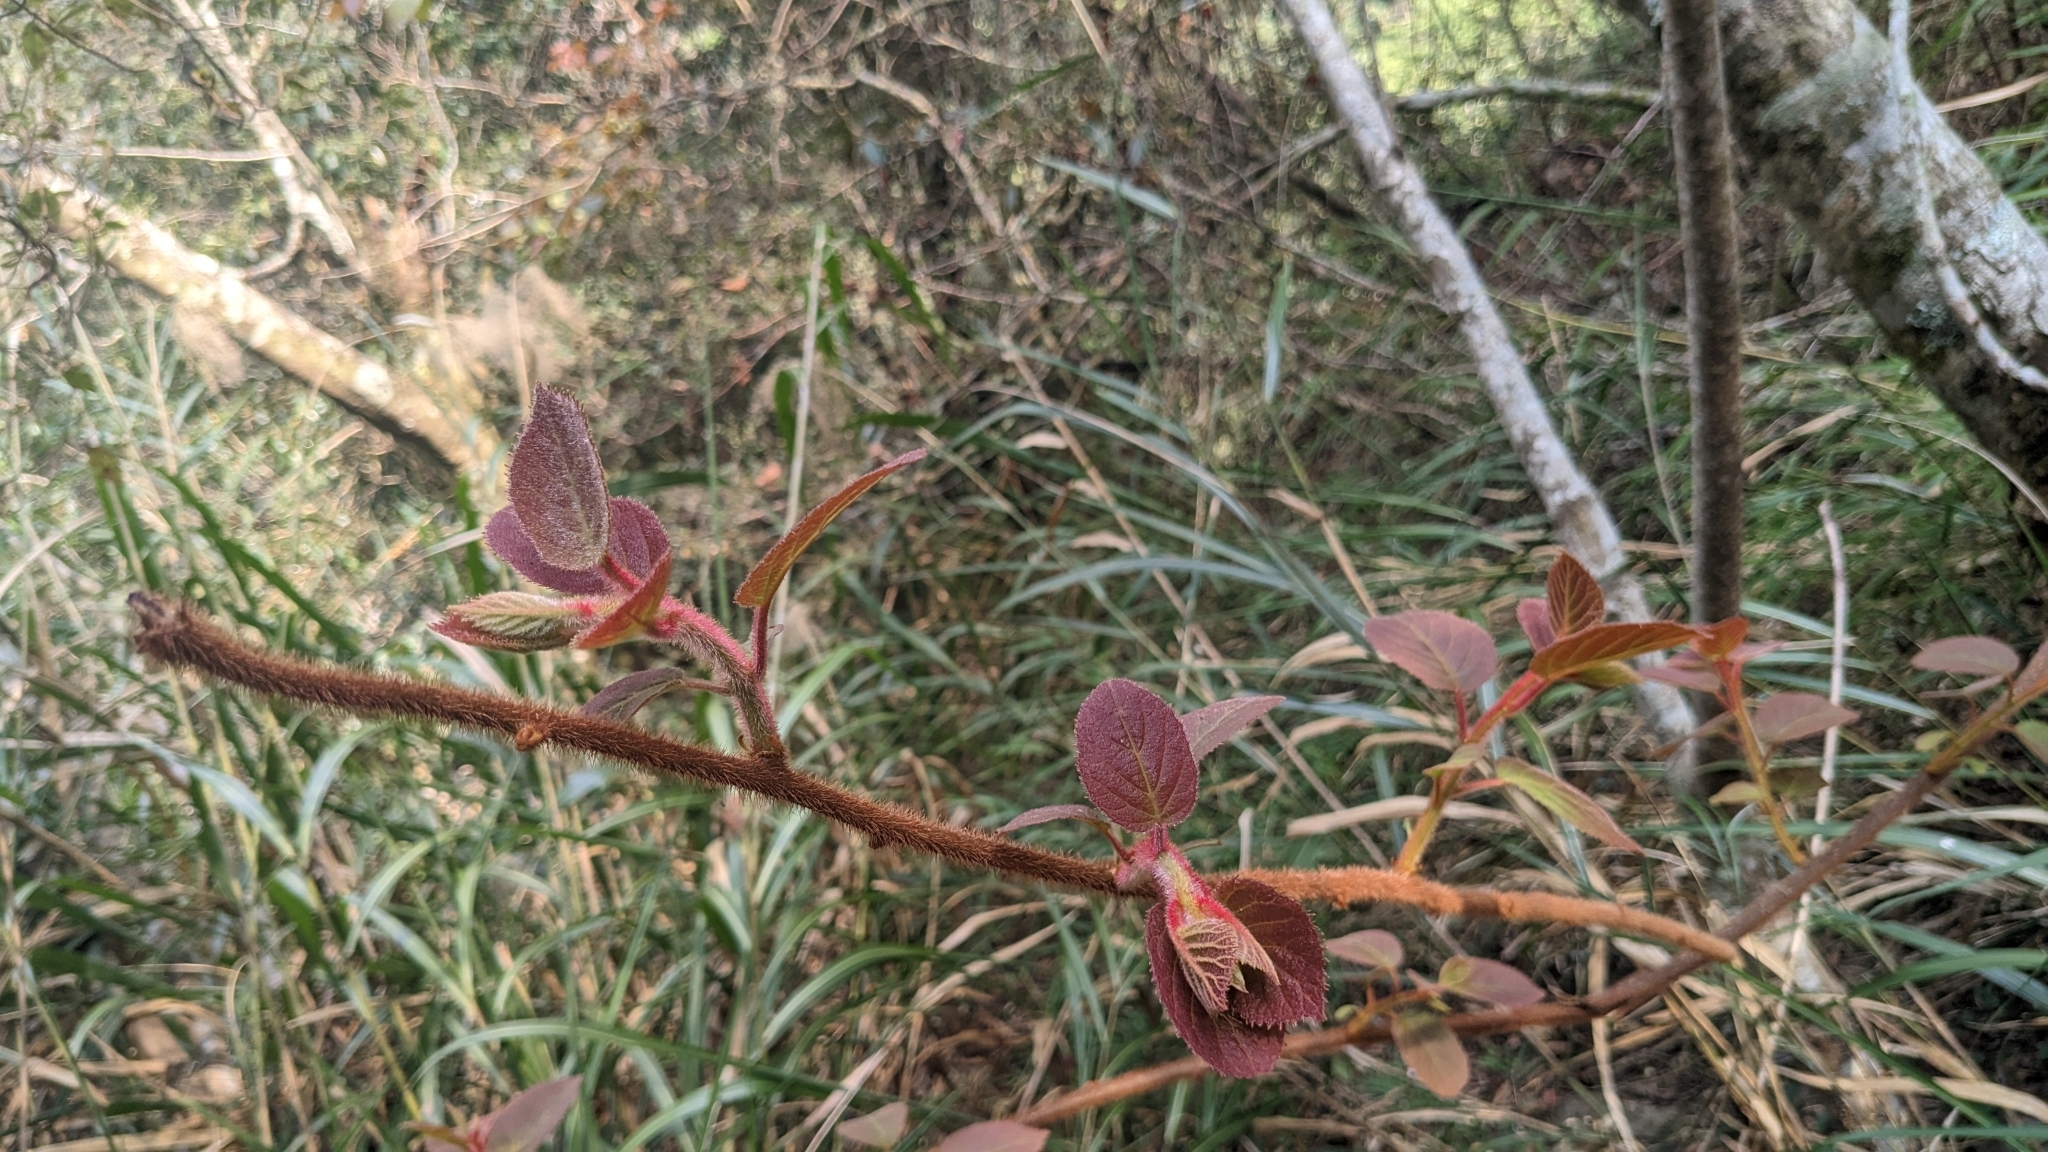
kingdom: Plantae
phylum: Tracheophyta
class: Magnoliopsida
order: Ericales
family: Actinidiaceae
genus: Actinidia
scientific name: Actinidia chinensis
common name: Kiwi
